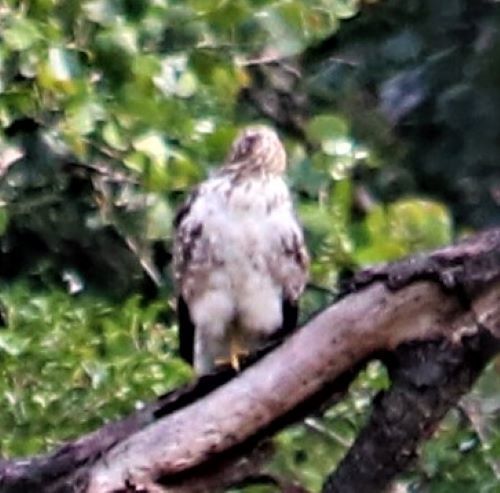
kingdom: Animalia
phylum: Chordata
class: Aves
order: Accipitriformes
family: Accipitridae
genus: Buteo
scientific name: Buteo trizonatus
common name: Forest buzzard
